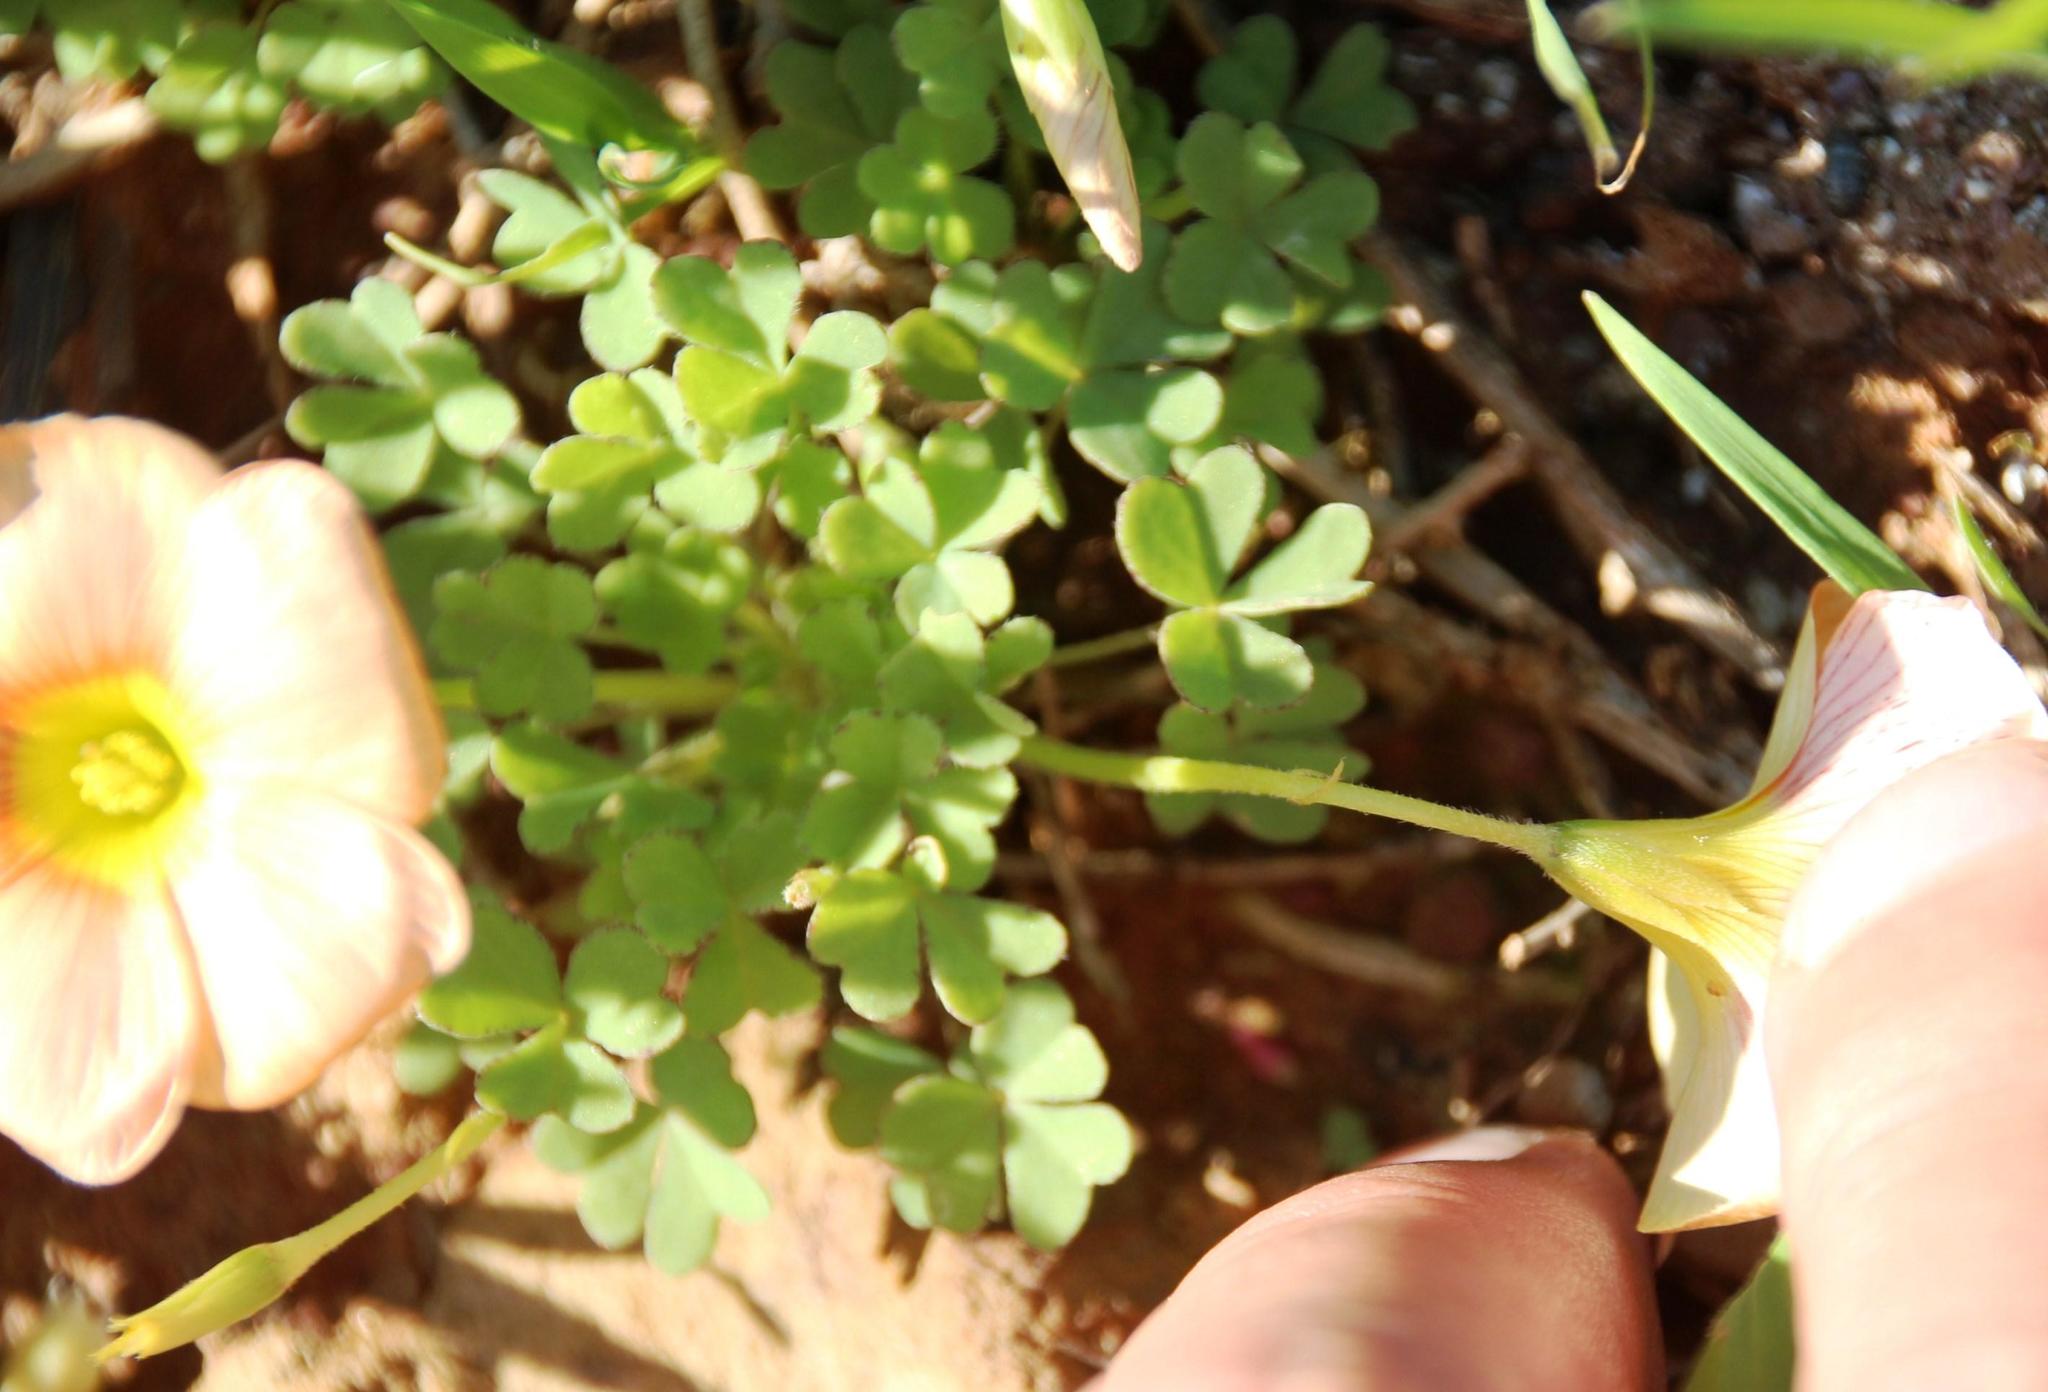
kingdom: Plantae
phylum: Tracheophyta
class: Magnoliopsida
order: Oxalidales
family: Oxalidaceae
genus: Oxalis
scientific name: Oxalis obtusa
